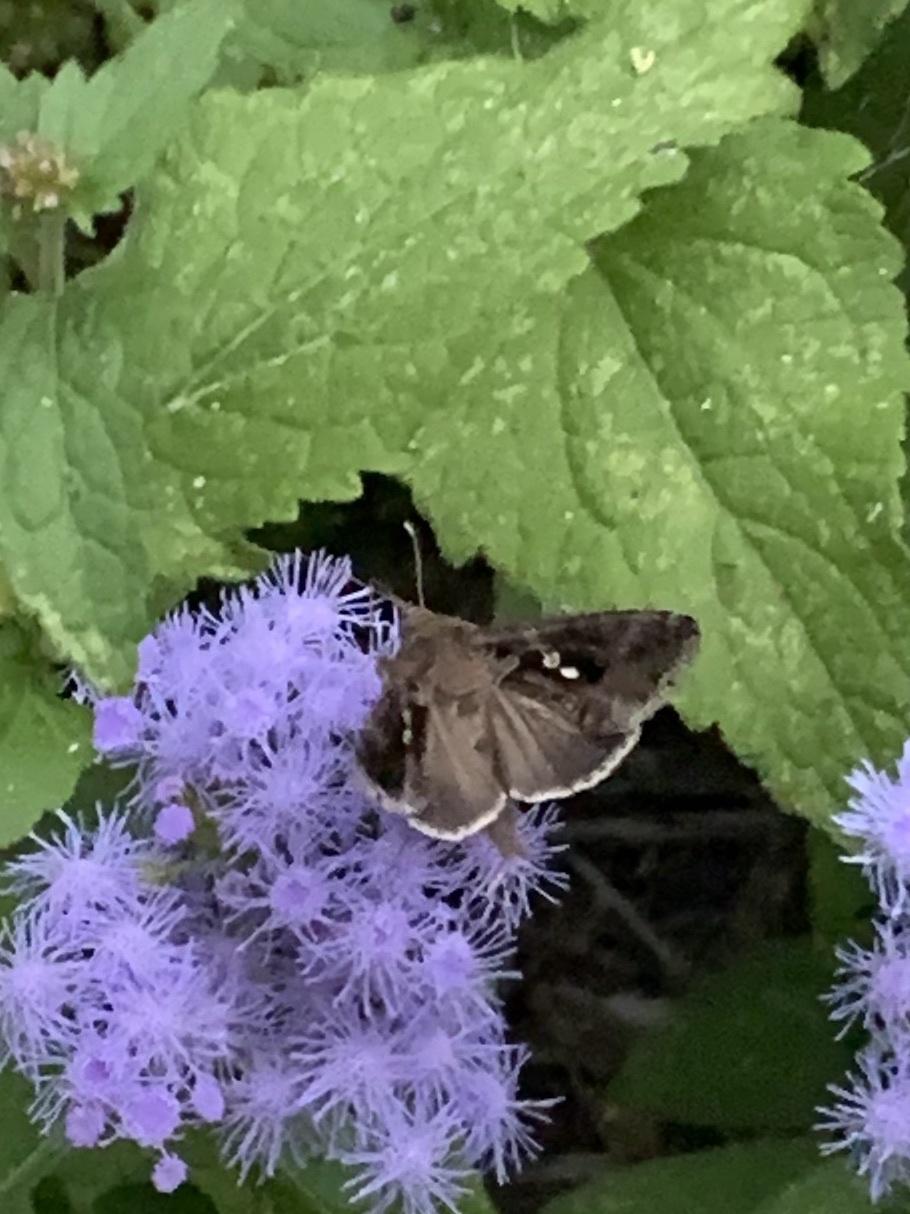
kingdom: Animalia
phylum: Arthropoda
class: Insecta
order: Lepidoptera
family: Noctuidae
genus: Chrysodeixis
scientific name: Chrysodeixis includens
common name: Cutworm moth
